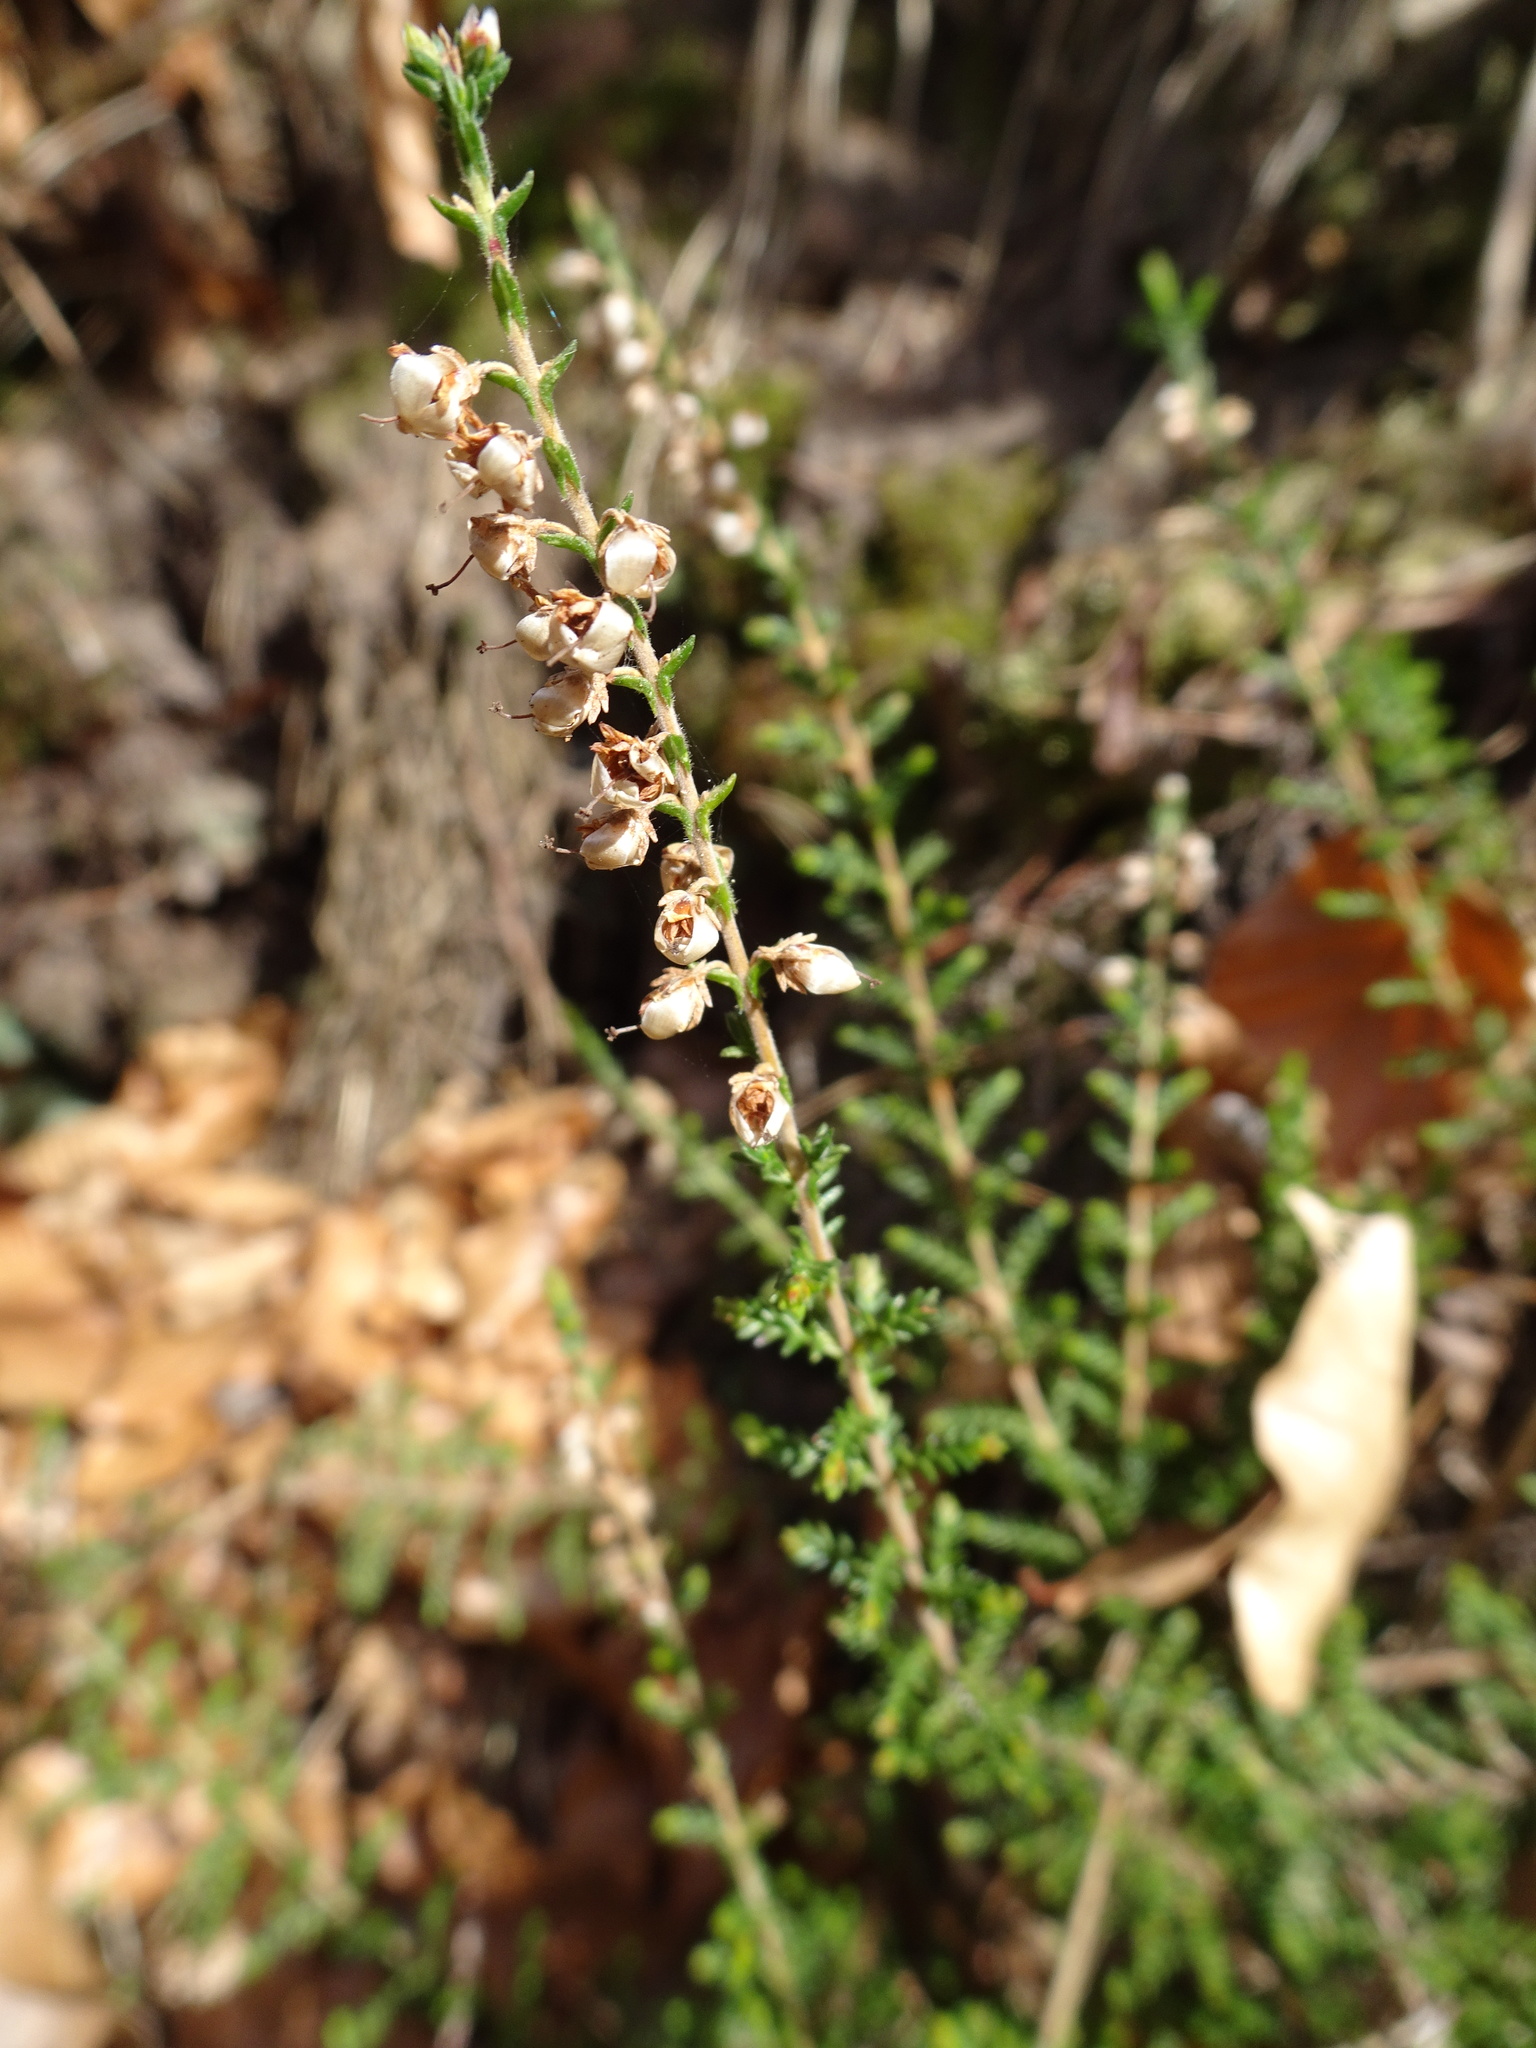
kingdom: Plantae
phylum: Tracheophyta
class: Magnoliopsida
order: Ericales
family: Ericaceae
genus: Calluna
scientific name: Calluna vulgaris
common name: Heather
